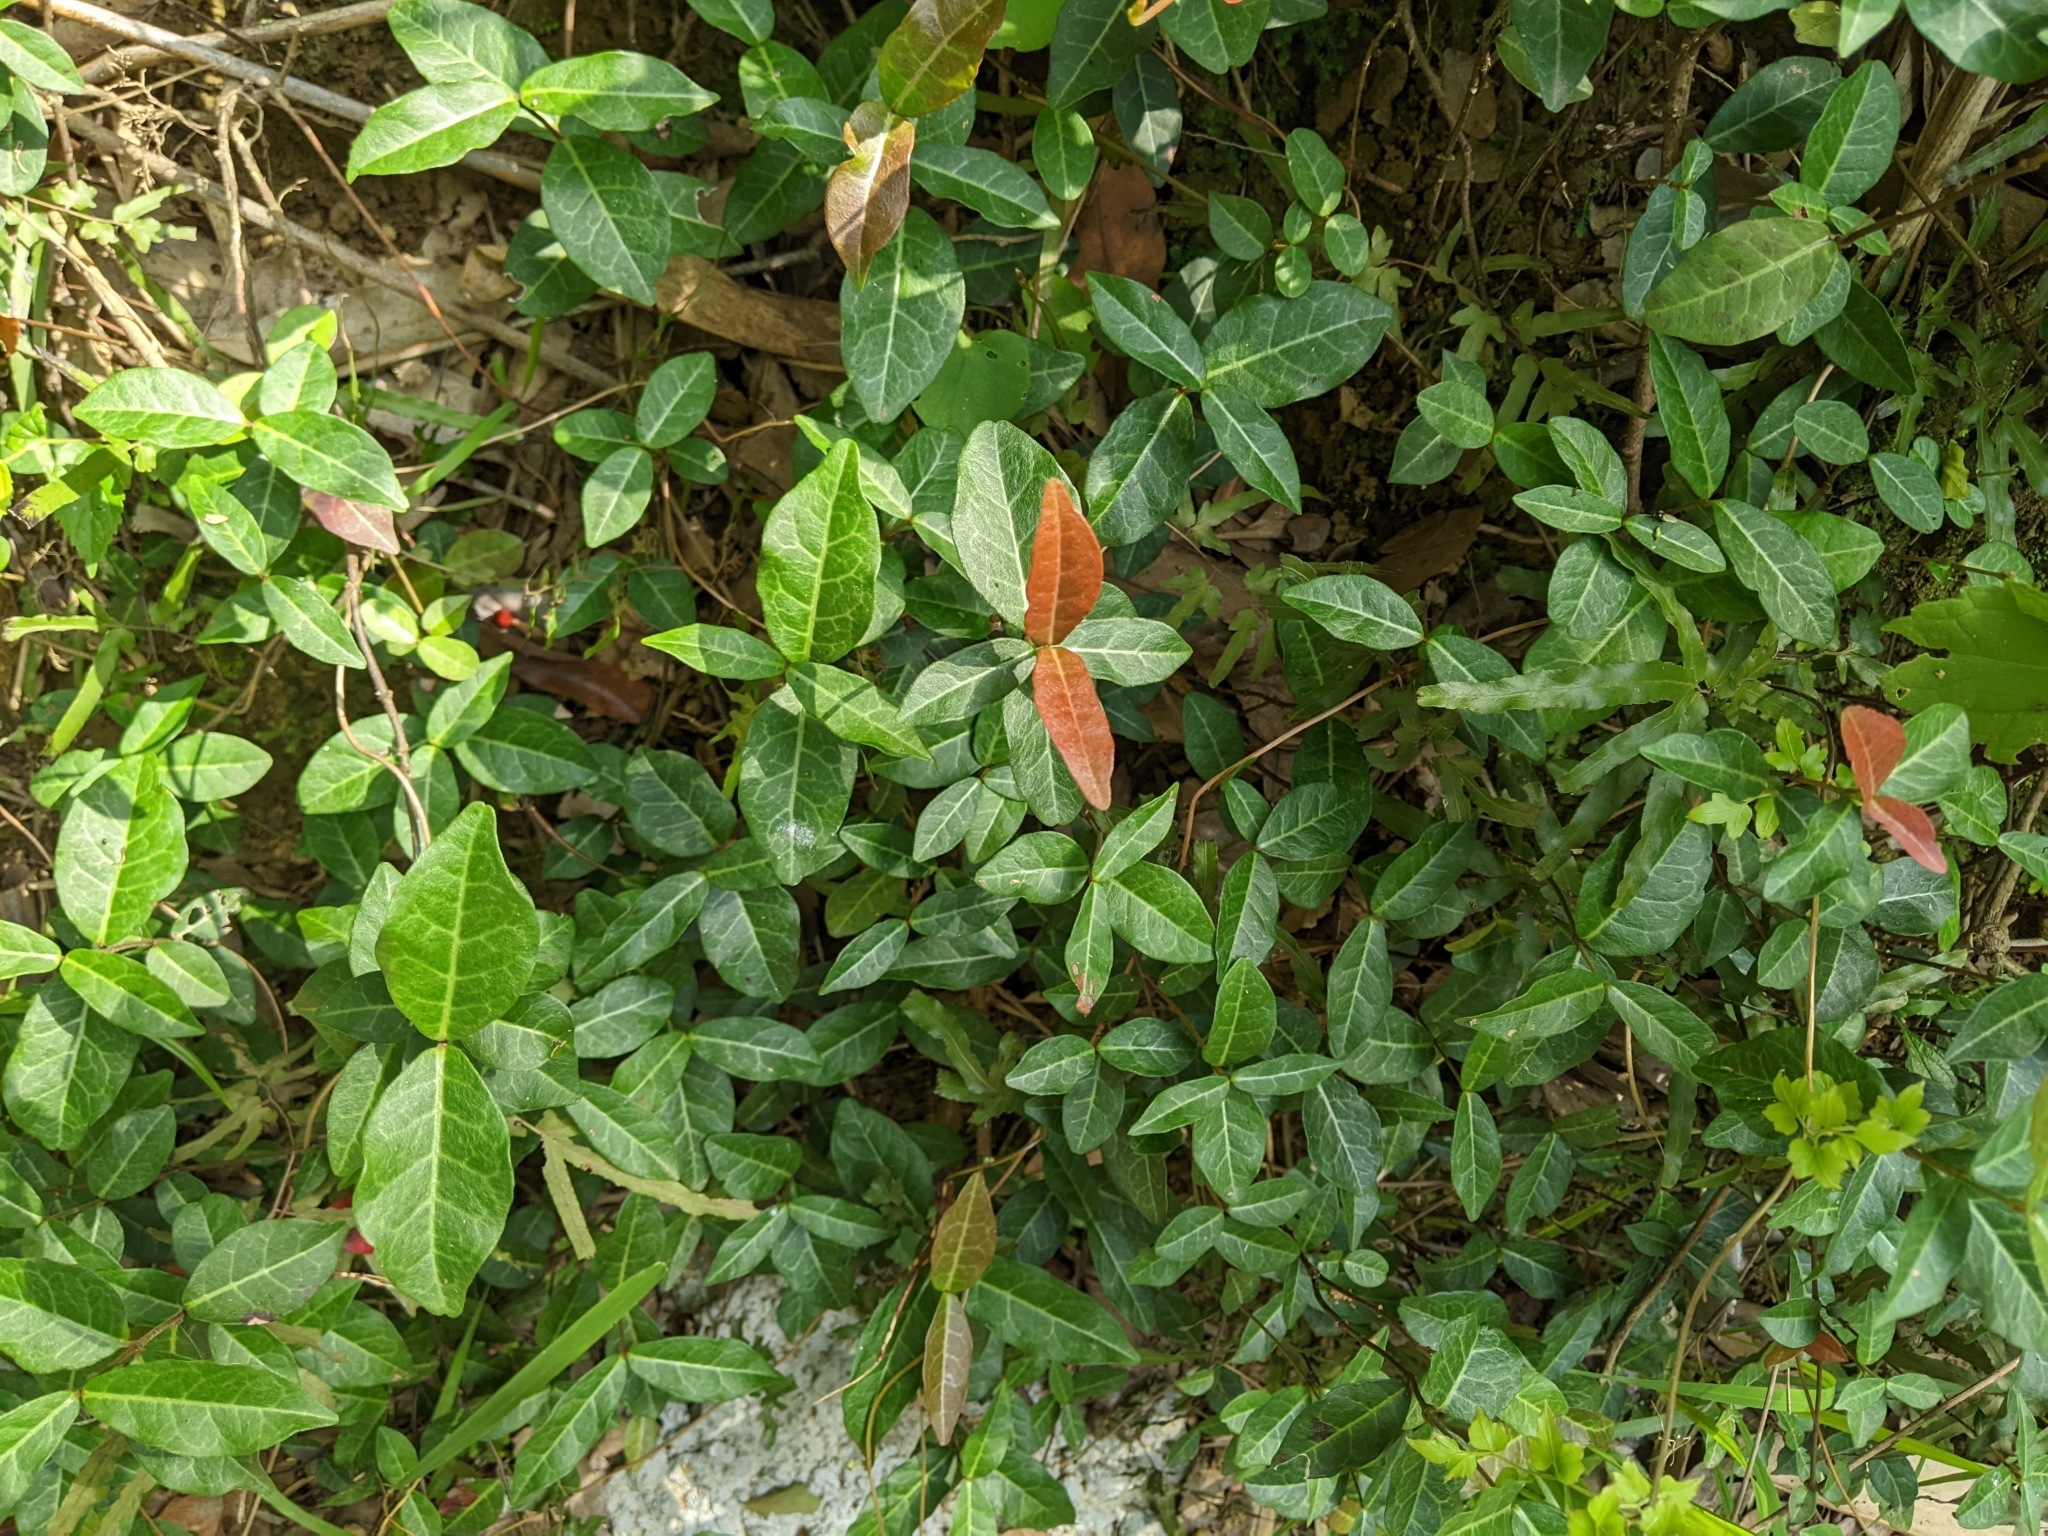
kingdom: Plantae
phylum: Tracheophyta
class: Magnoliopsida
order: Gentianales
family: Apocynaceae
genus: Trachelospermum
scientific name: Trachelospermum jasminoides
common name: Confederate jasmine
